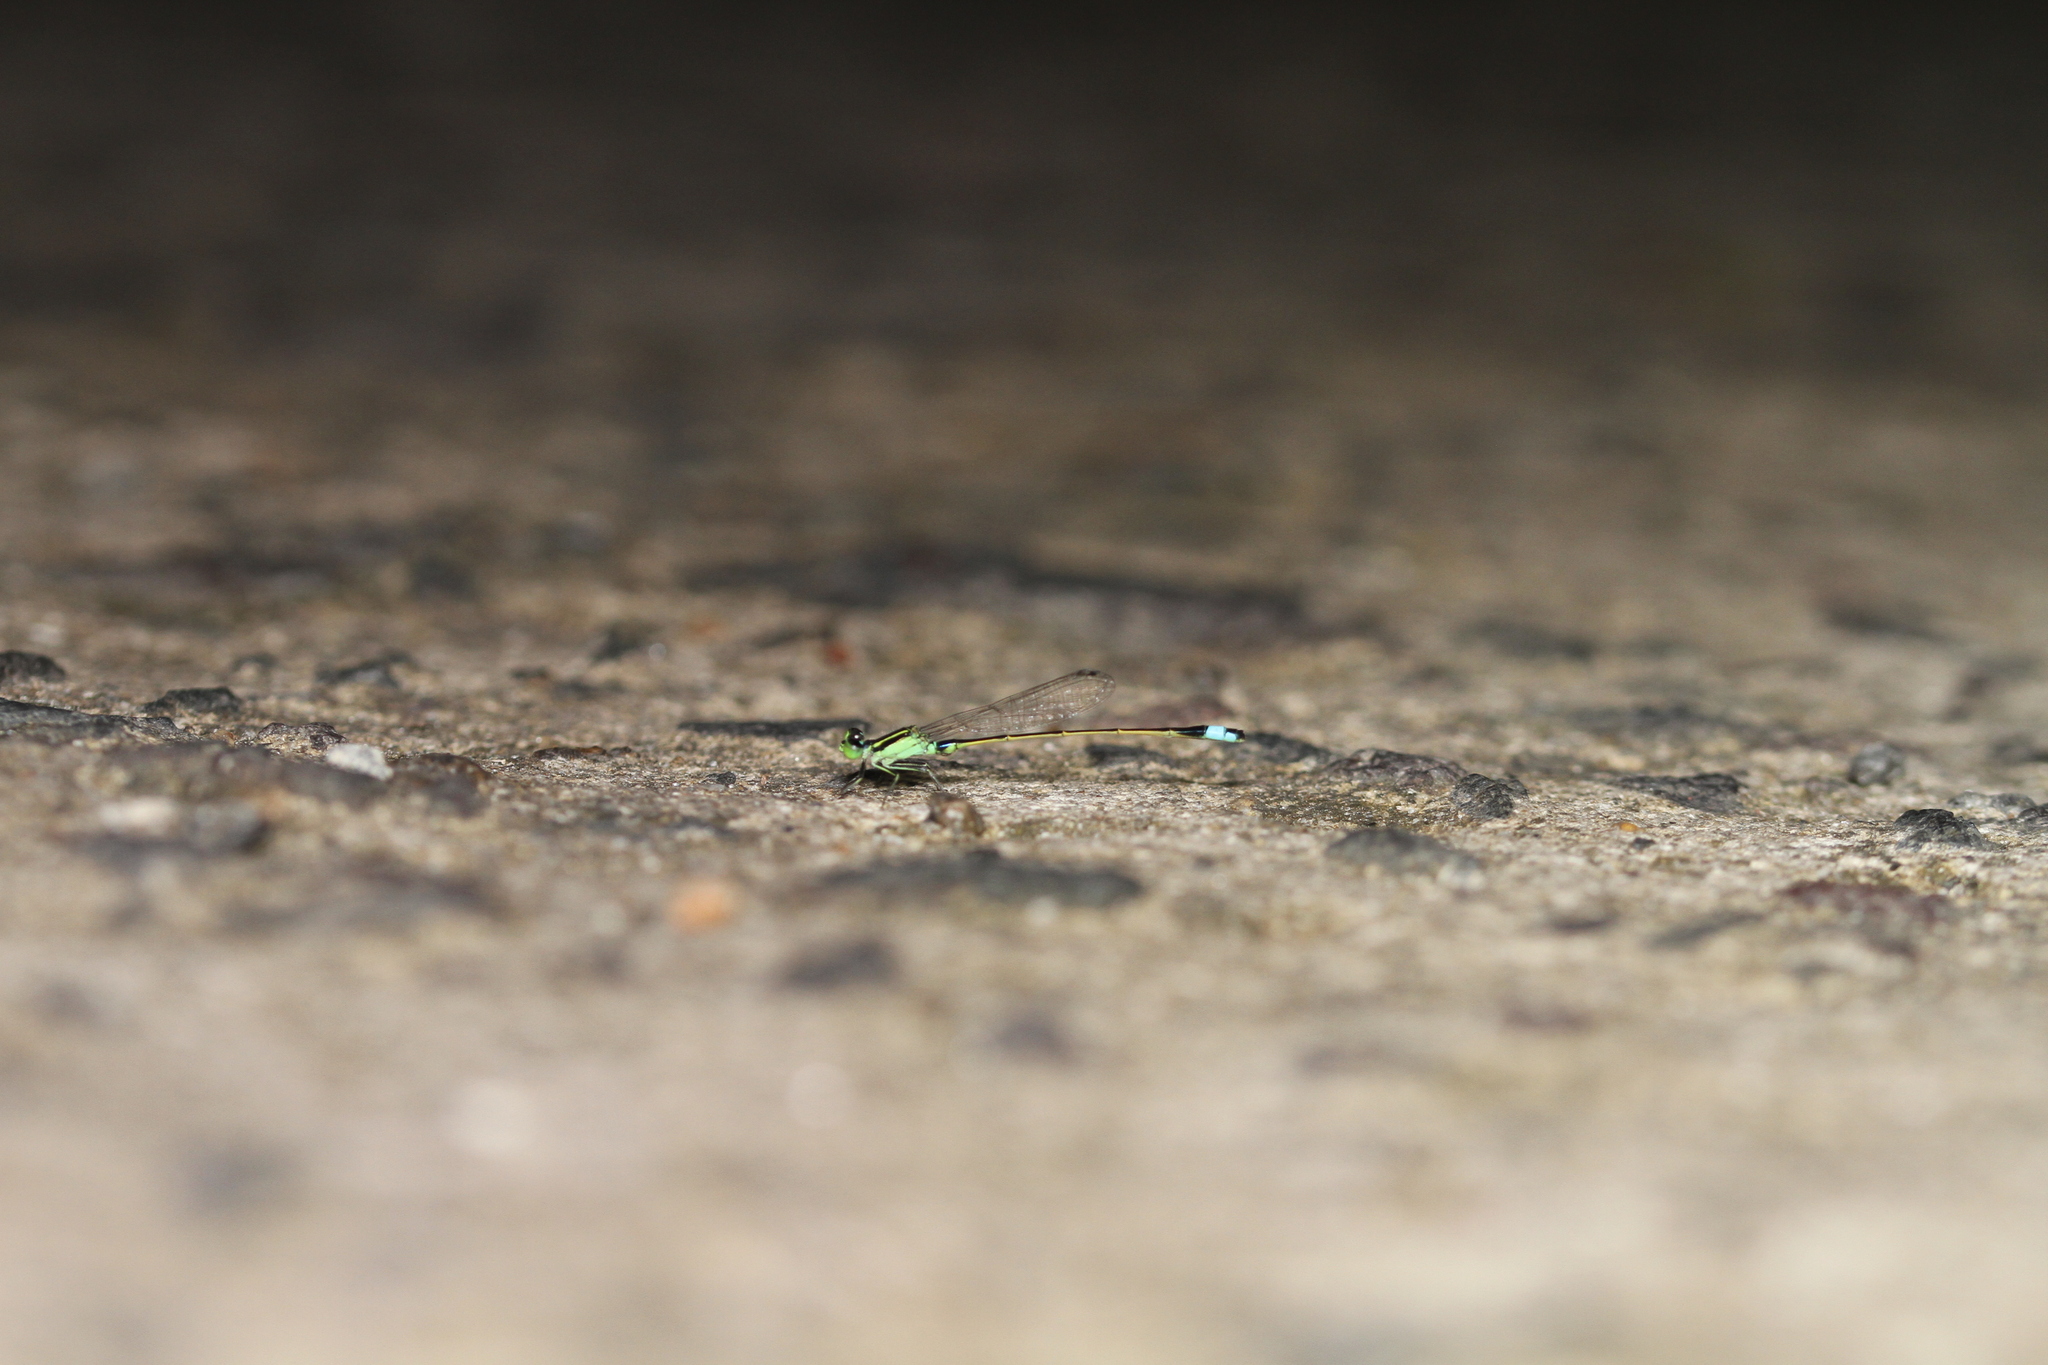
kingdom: Animalia
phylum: Arthropoda
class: Insecta
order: Odonata
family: Coenagrionidae
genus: Ischnura
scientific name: Ischnura senegalensis
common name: Tropical bluetail
